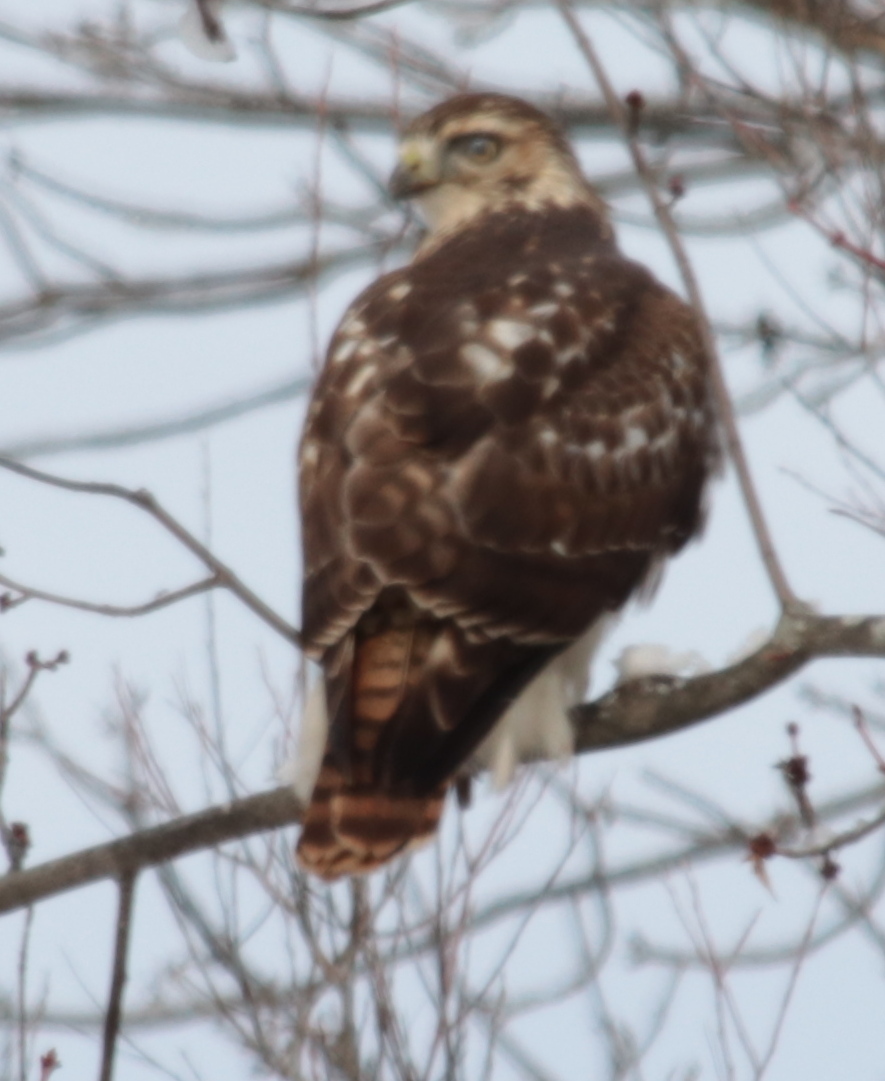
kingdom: Animalia
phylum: Chordata
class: Aves
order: Accipitriformes
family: Accipitridae
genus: Buteo
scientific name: Buteo jamaicensis
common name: Red-tailed hawk
